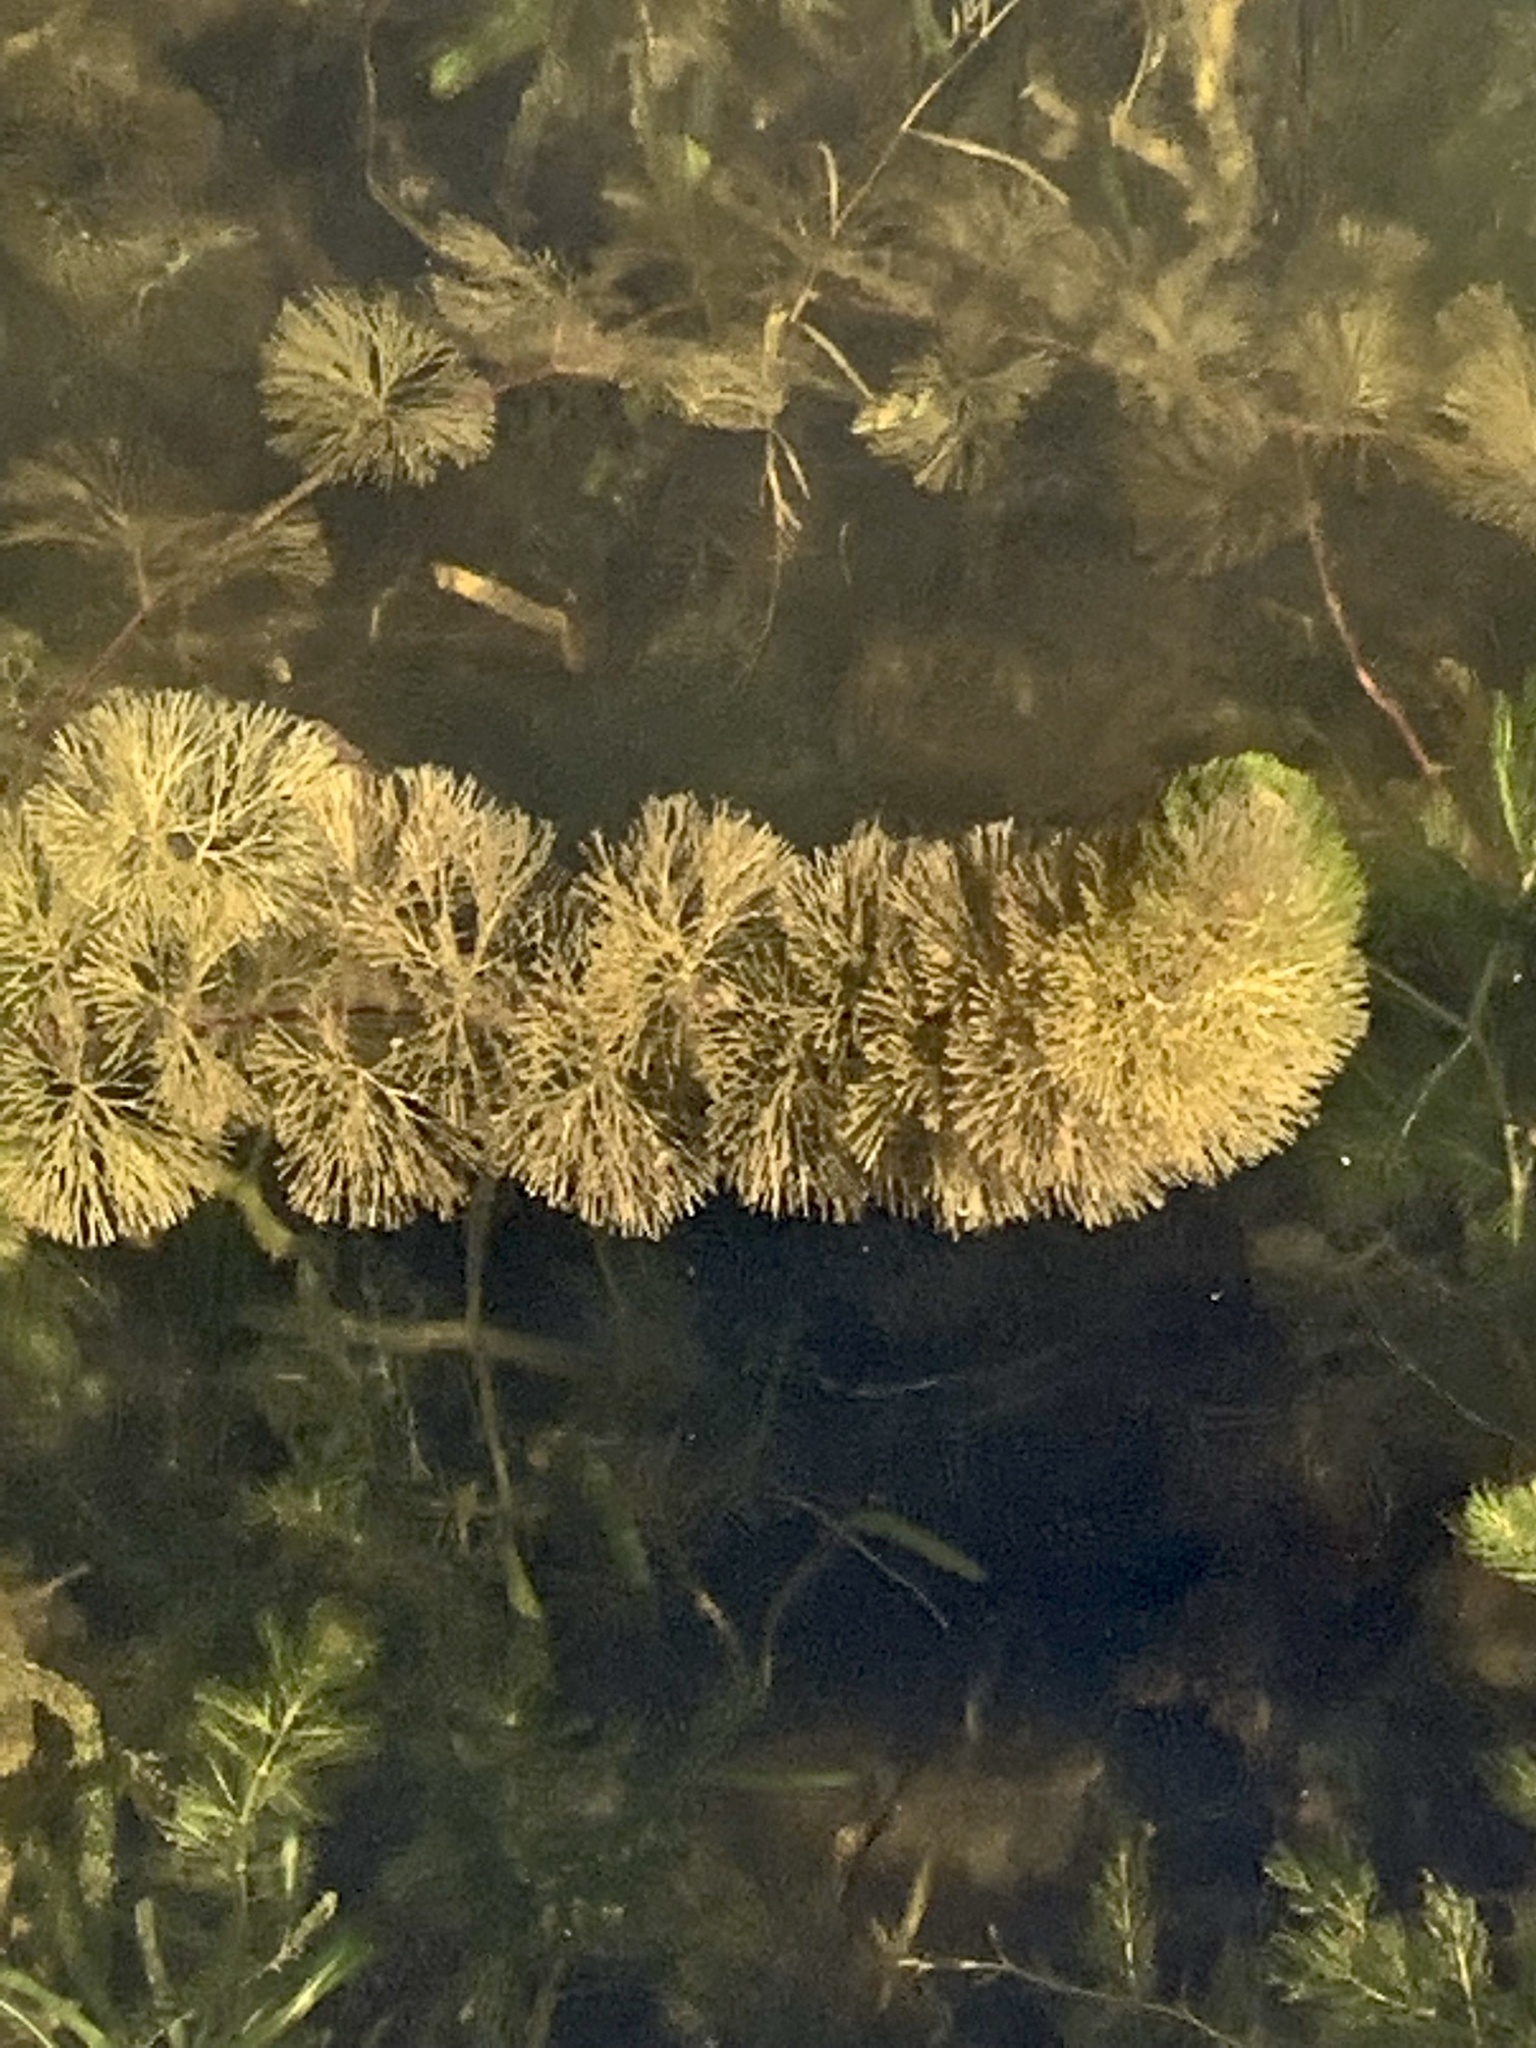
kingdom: Plantae
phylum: Tracheophyta
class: Magnoliopsida
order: Nymphaeales
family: Cabombaceae
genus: Cabomba
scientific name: Cabomba caroliniana
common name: Fanwort
